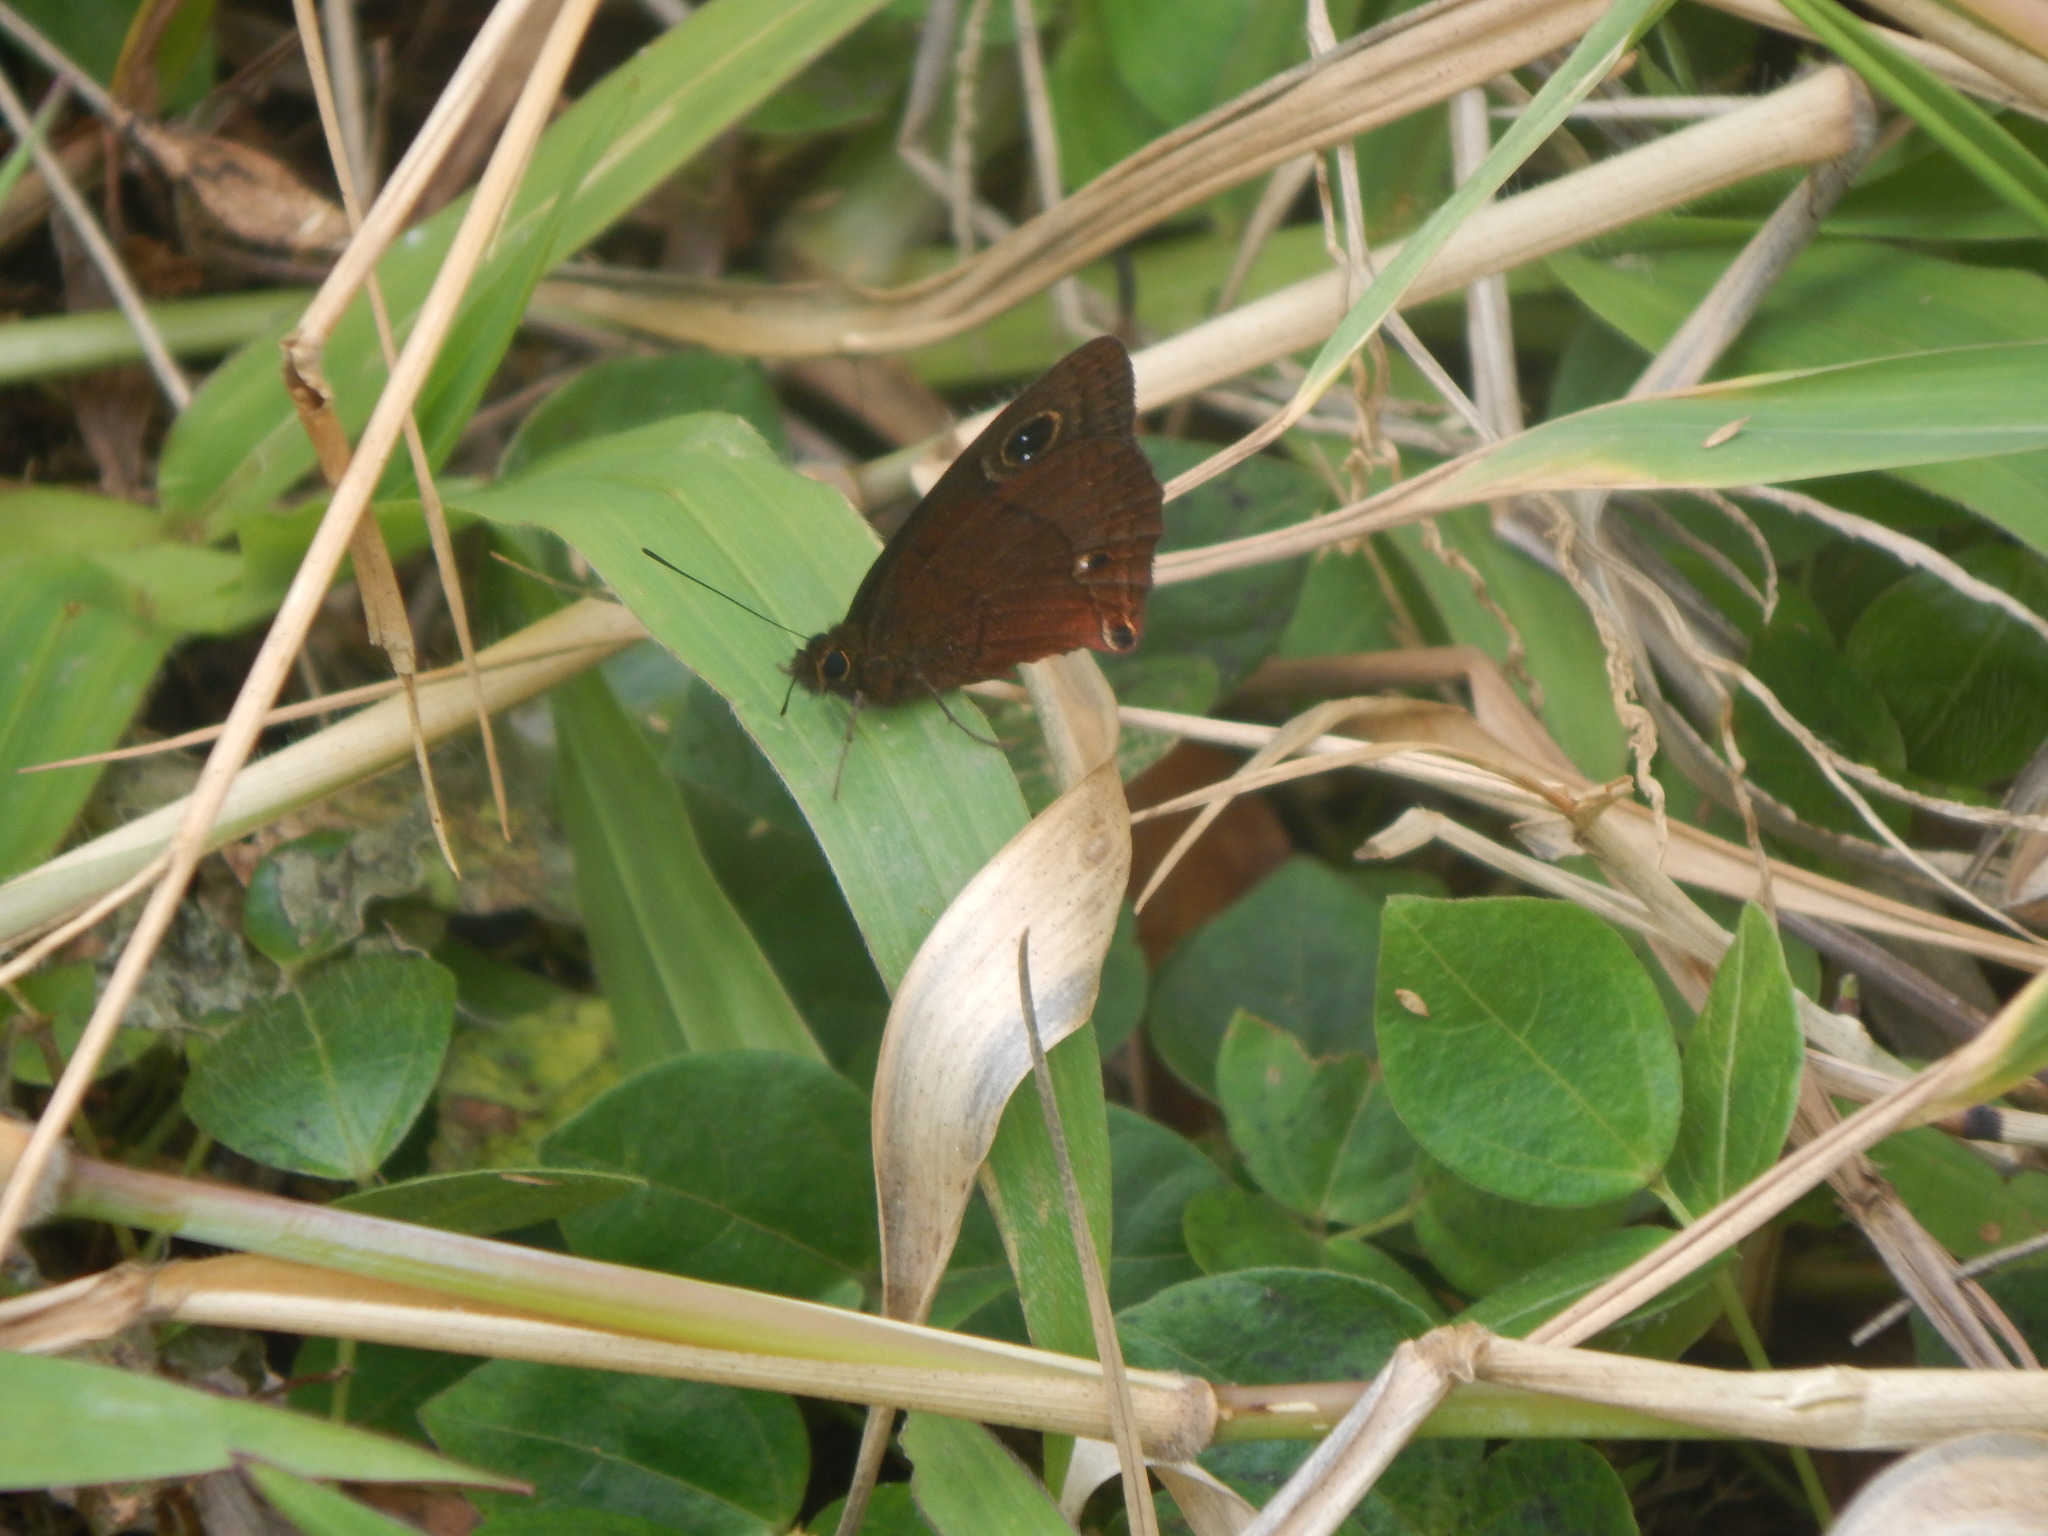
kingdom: Animalia
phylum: Arthropoda
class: Insecta
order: Lepidoptera
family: Nymphalidae
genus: Calisto
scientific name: Calisto nubila
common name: Puerto rican calisto
